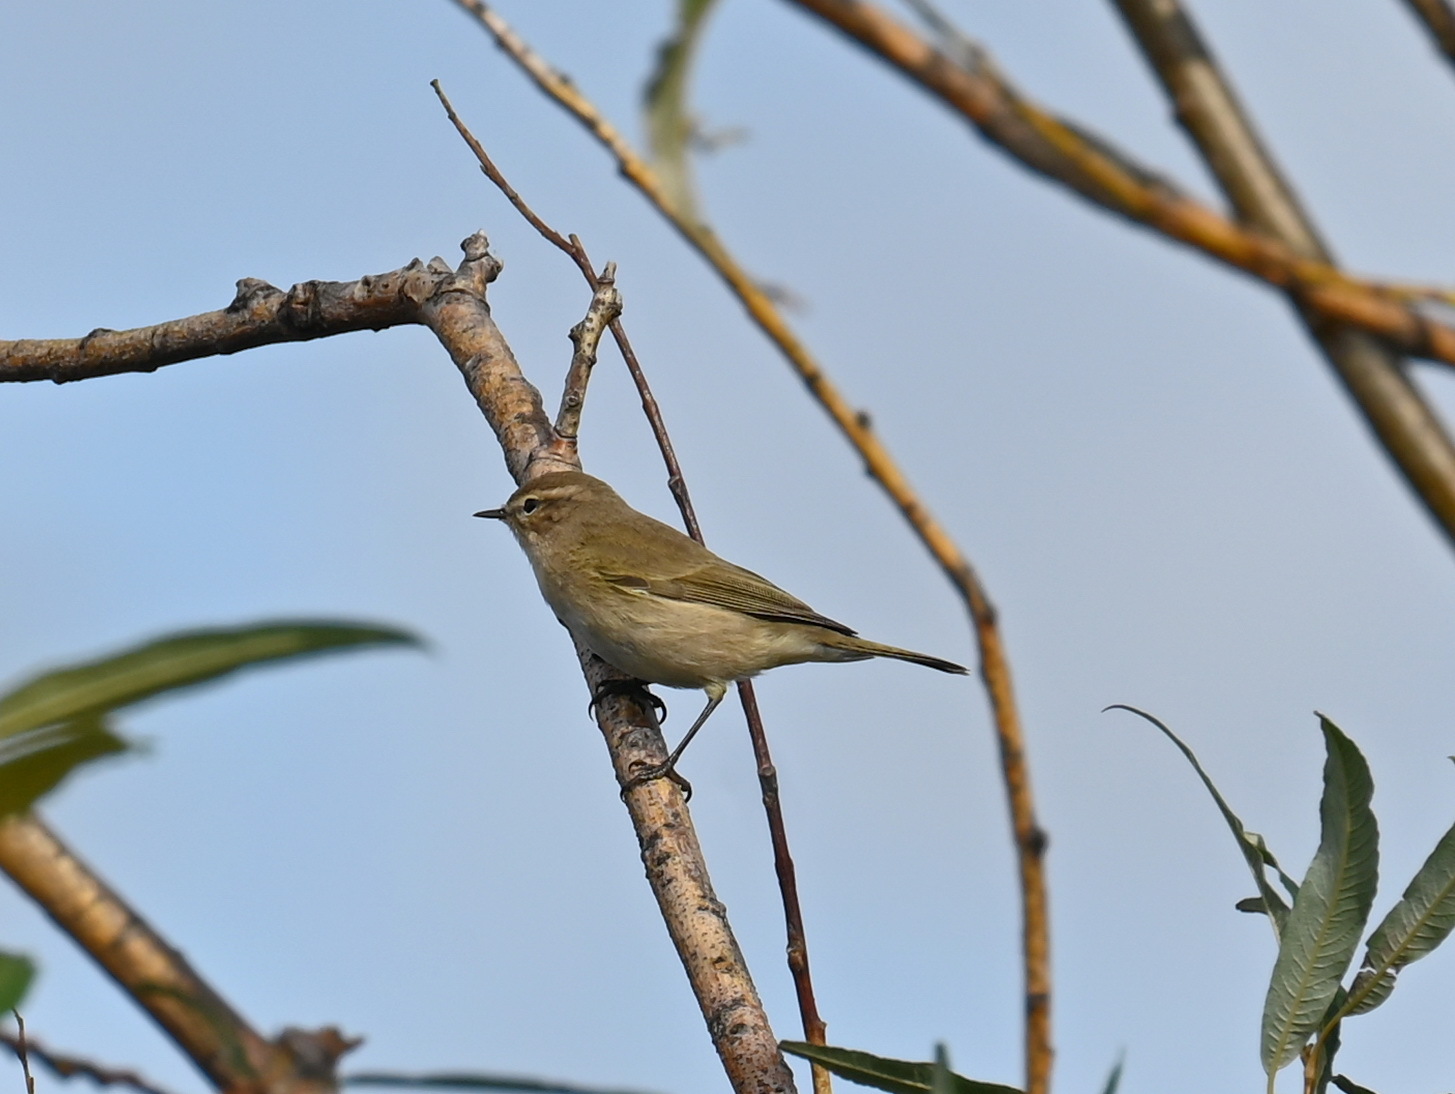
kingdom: Animalia
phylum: Chordata
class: Aves
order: Passeriformes
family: Phylloscopidae
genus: Phylloscopus
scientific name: Phylloscopus collybita
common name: Common chiffchaff
